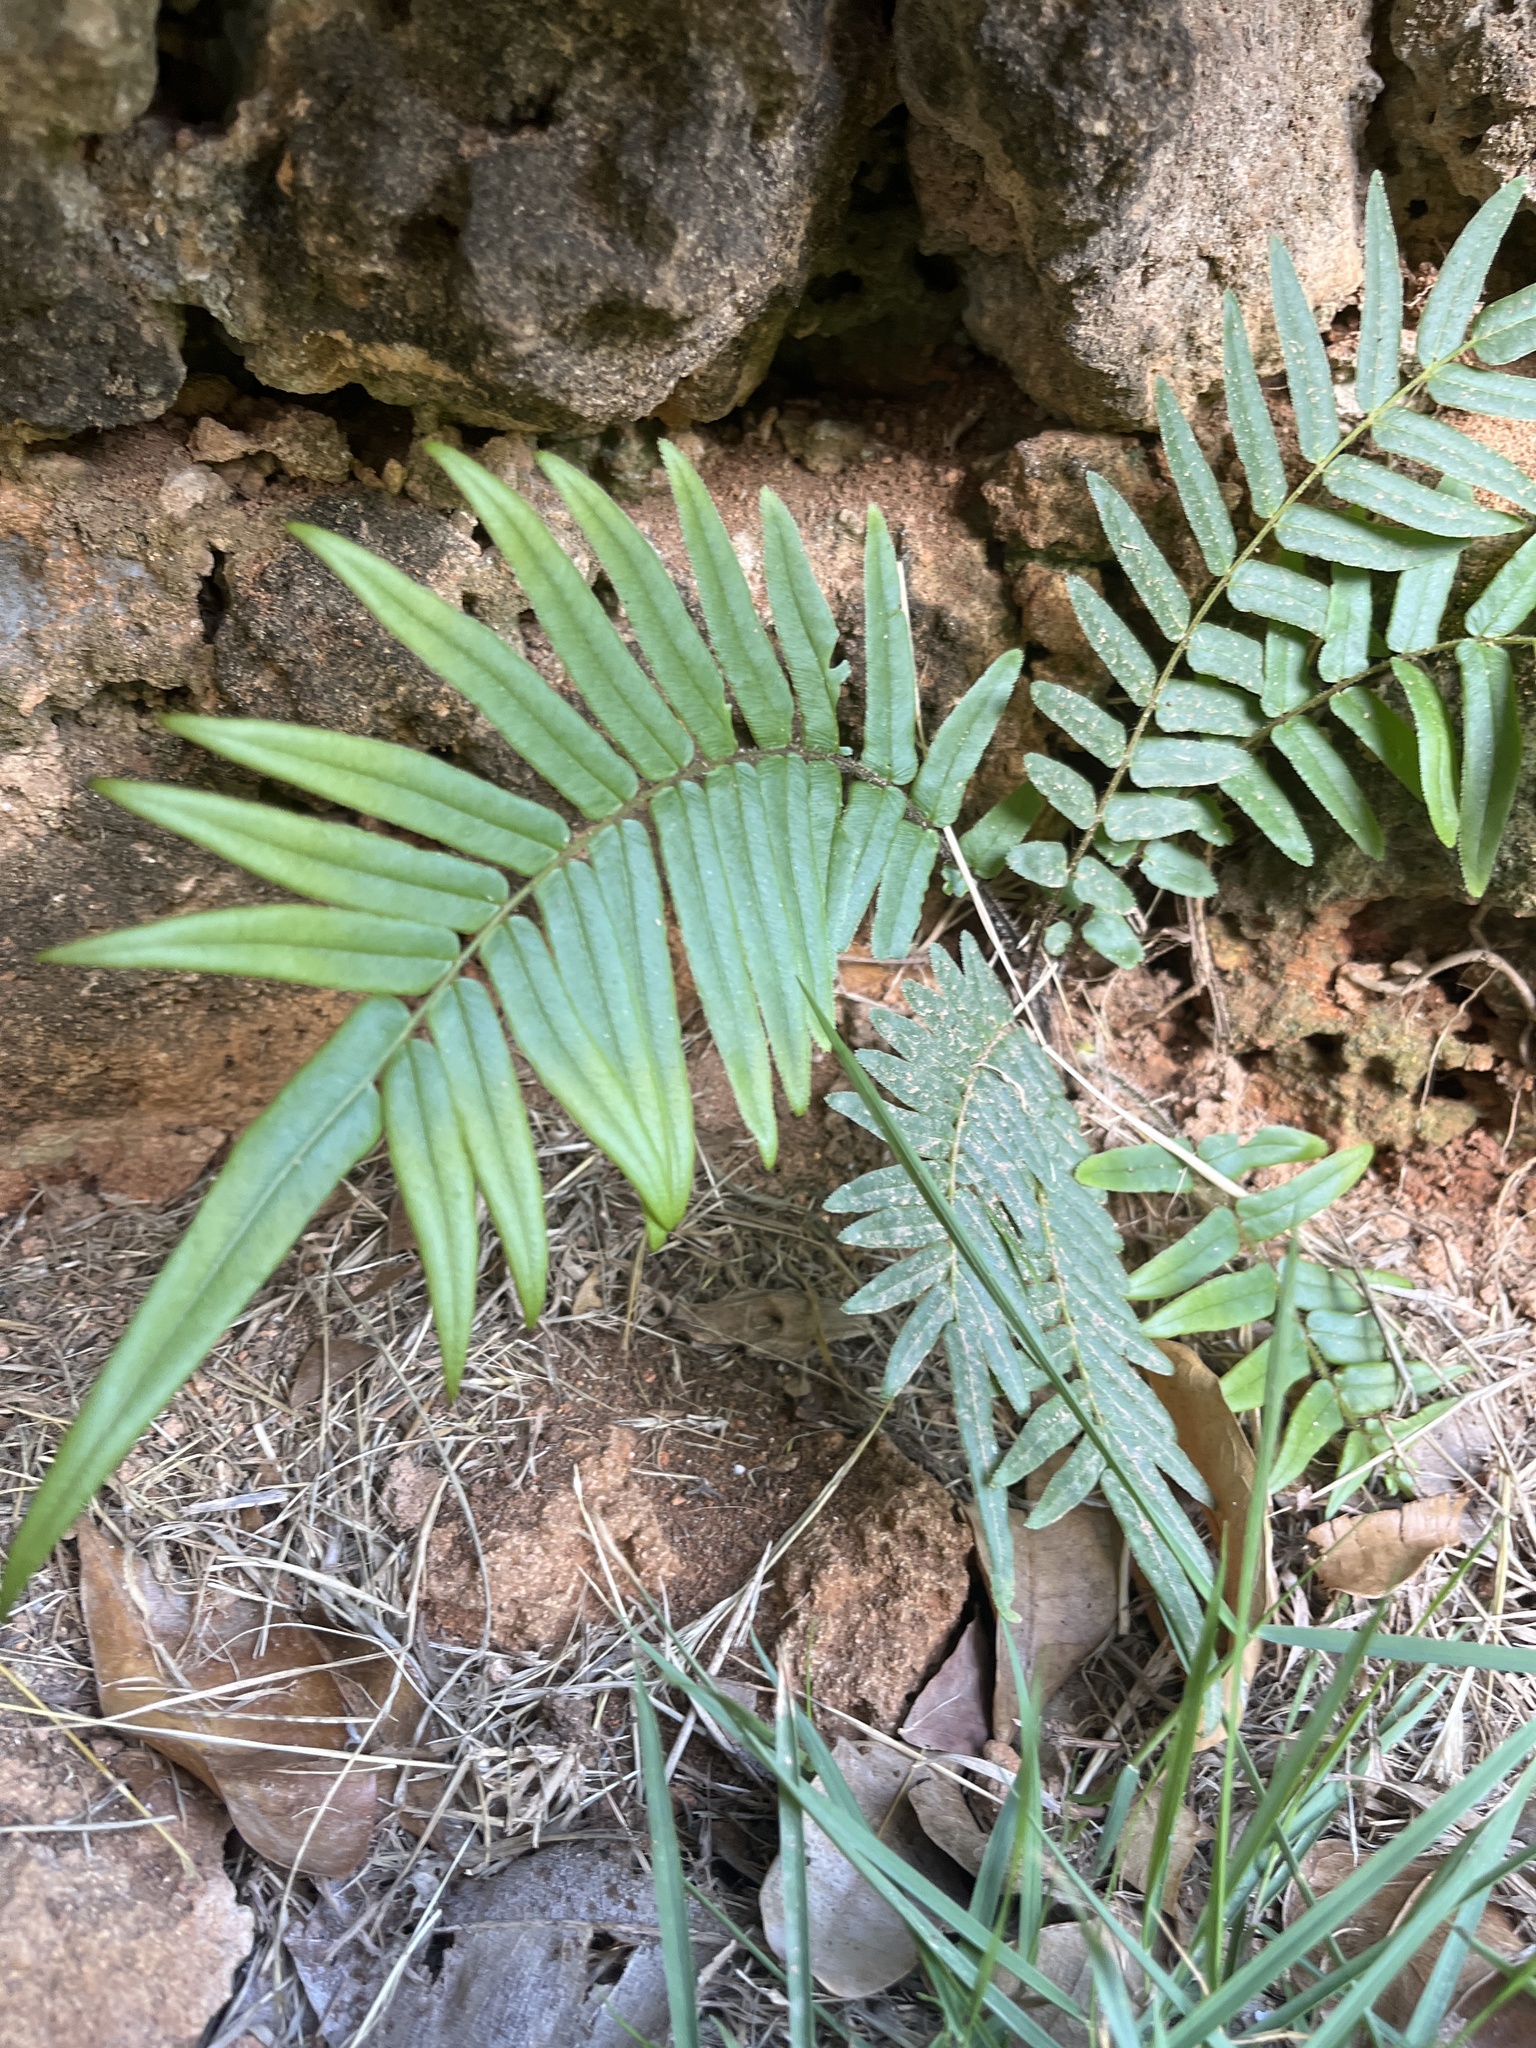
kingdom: Plantae
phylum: Tracheophyta
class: Polypodiopsida
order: Polypodiales
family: Pteridaceae
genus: Pteris
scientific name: Pteris vittata
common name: Ladder brake
